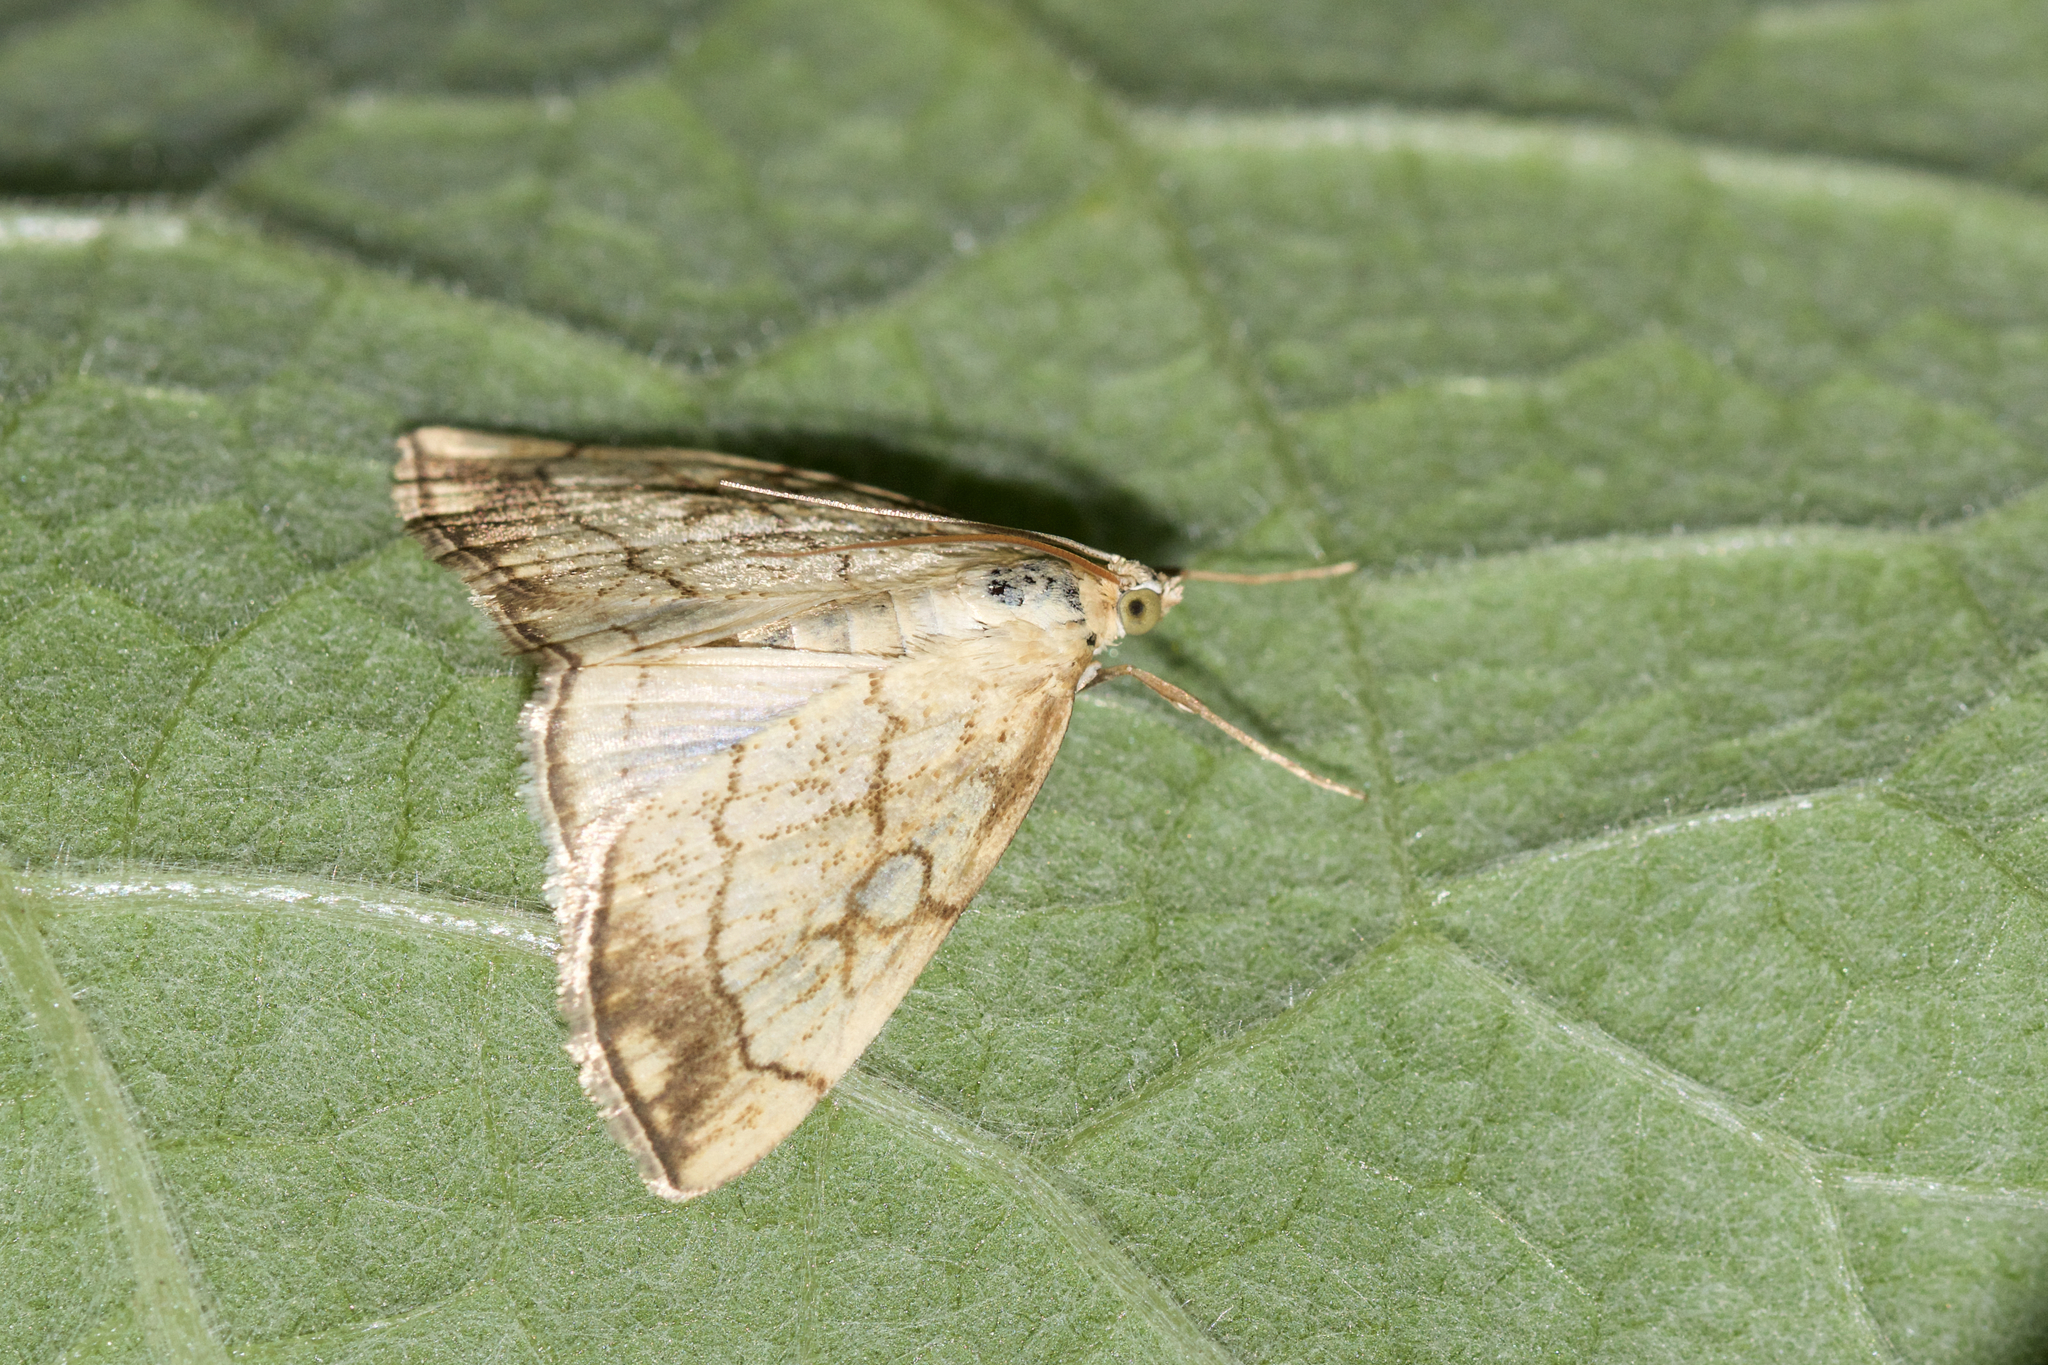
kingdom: Animalia
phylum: Arthropoda
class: Insecta
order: Lepidoptera
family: Crambidae
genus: Evergestis
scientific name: Evergestis pallidata
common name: Chequered pearl
